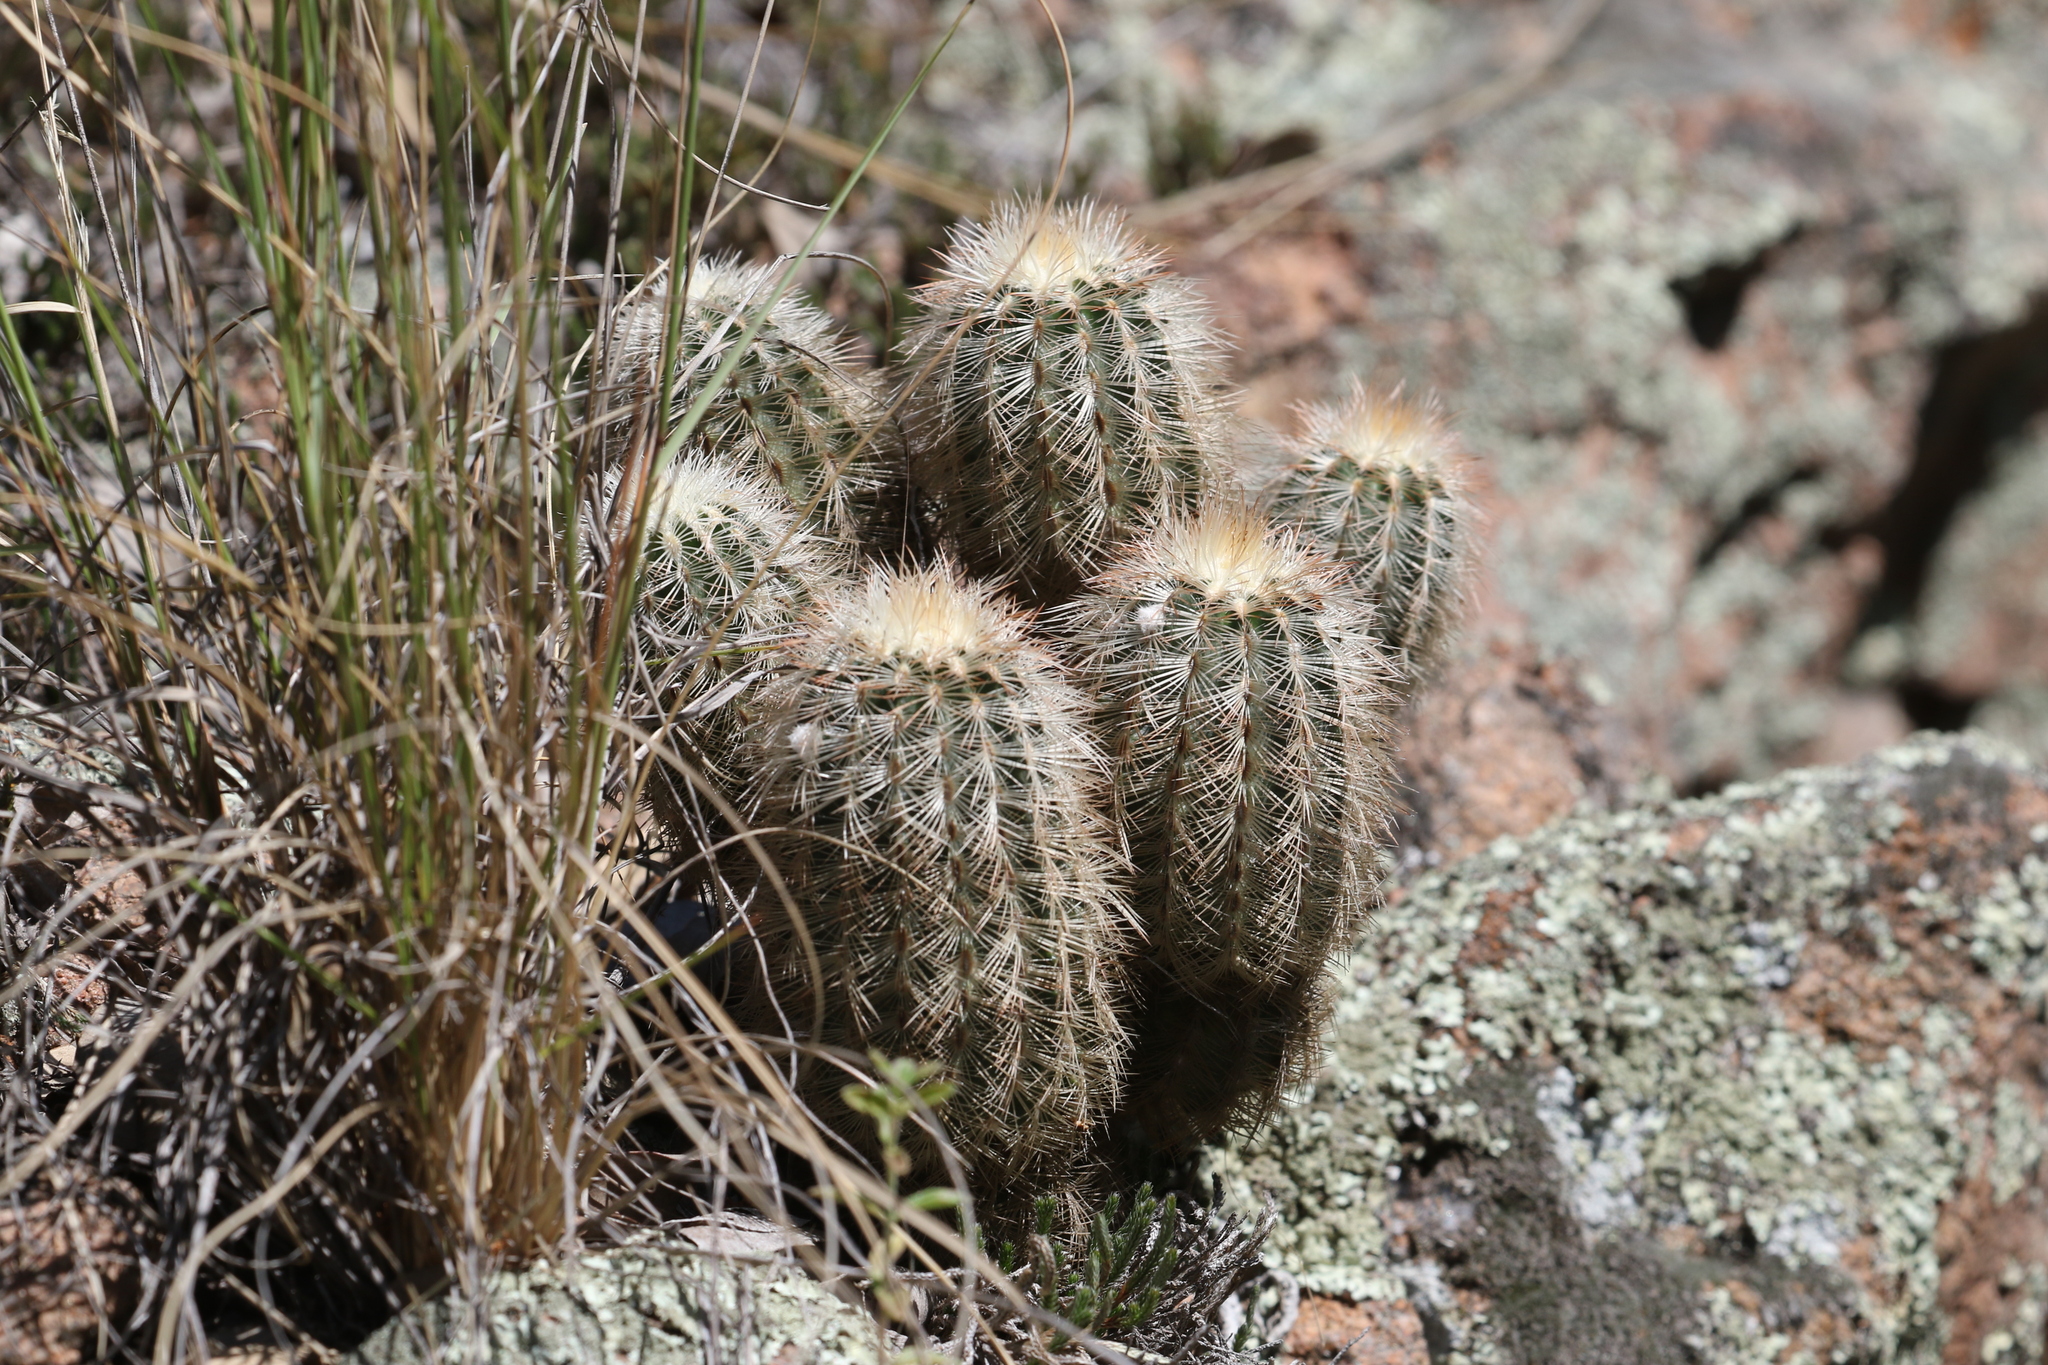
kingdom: Plantae
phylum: Tracheophyta
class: Magnoliopsida
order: Caryophyllales
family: Cactaceae
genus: Echinocereus
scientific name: Echinocereus reichenbachii
